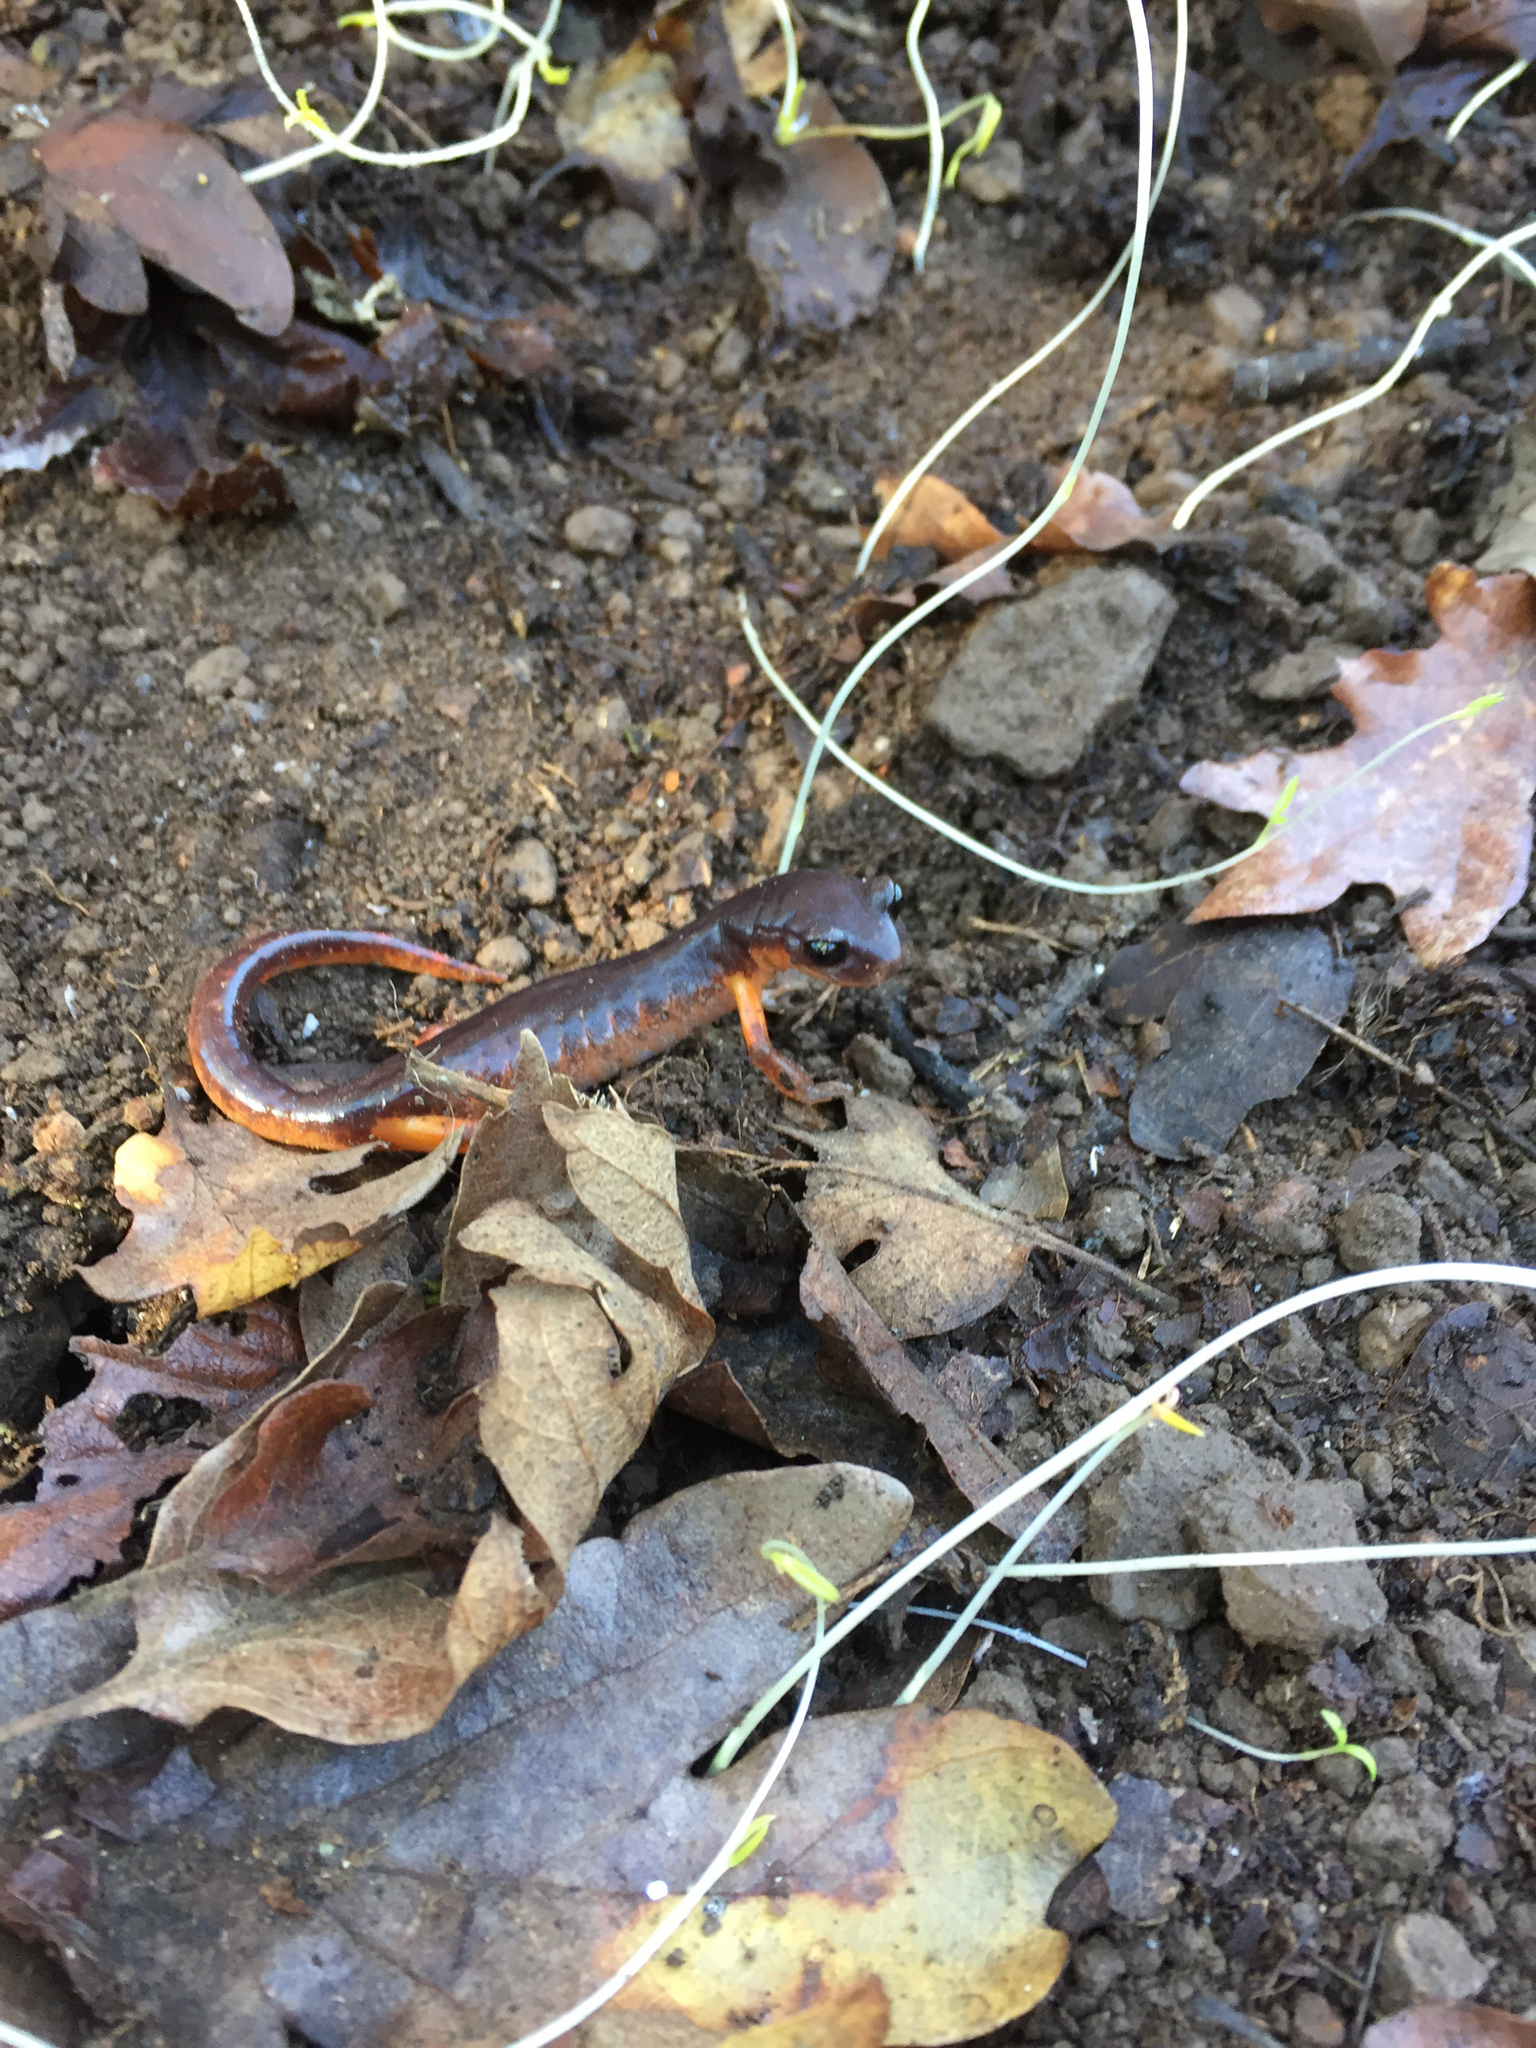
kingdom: Animalia
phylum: Chordata
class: Amphibia
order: Caudata
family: Plethodontidae
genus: Ensatina
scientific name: Ensatina eschscholtzii
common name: Ensatina
